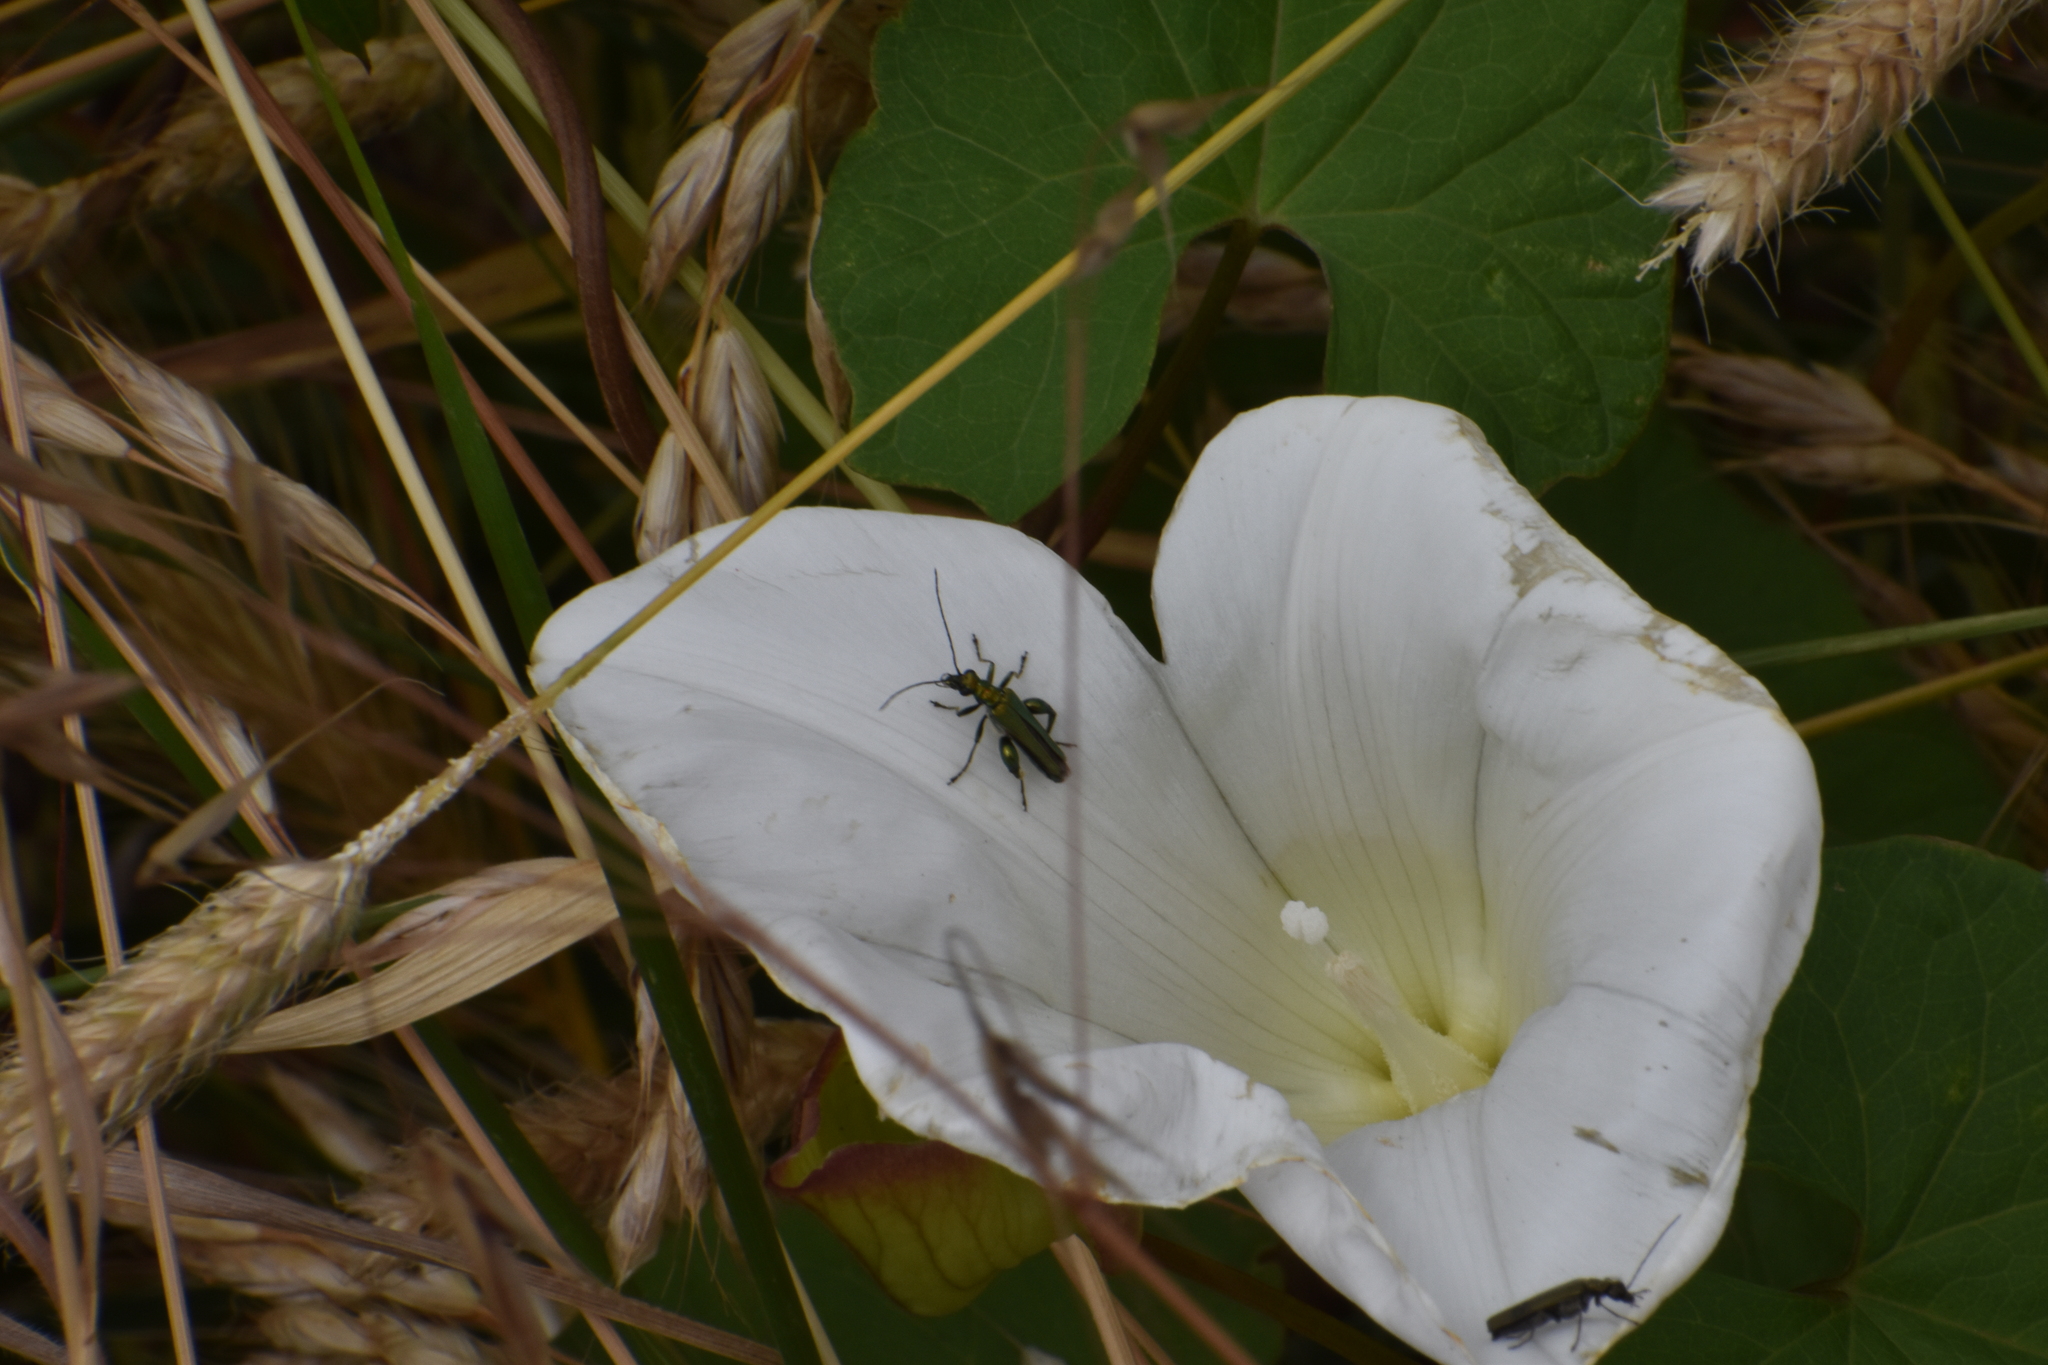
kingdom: Animalia
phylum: Arthropoda
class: Insecta
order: Coleoptera
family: Oedemeridae
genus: Oedemera
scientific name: Oedemera nobilis
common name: Swollen-thighed beetle
